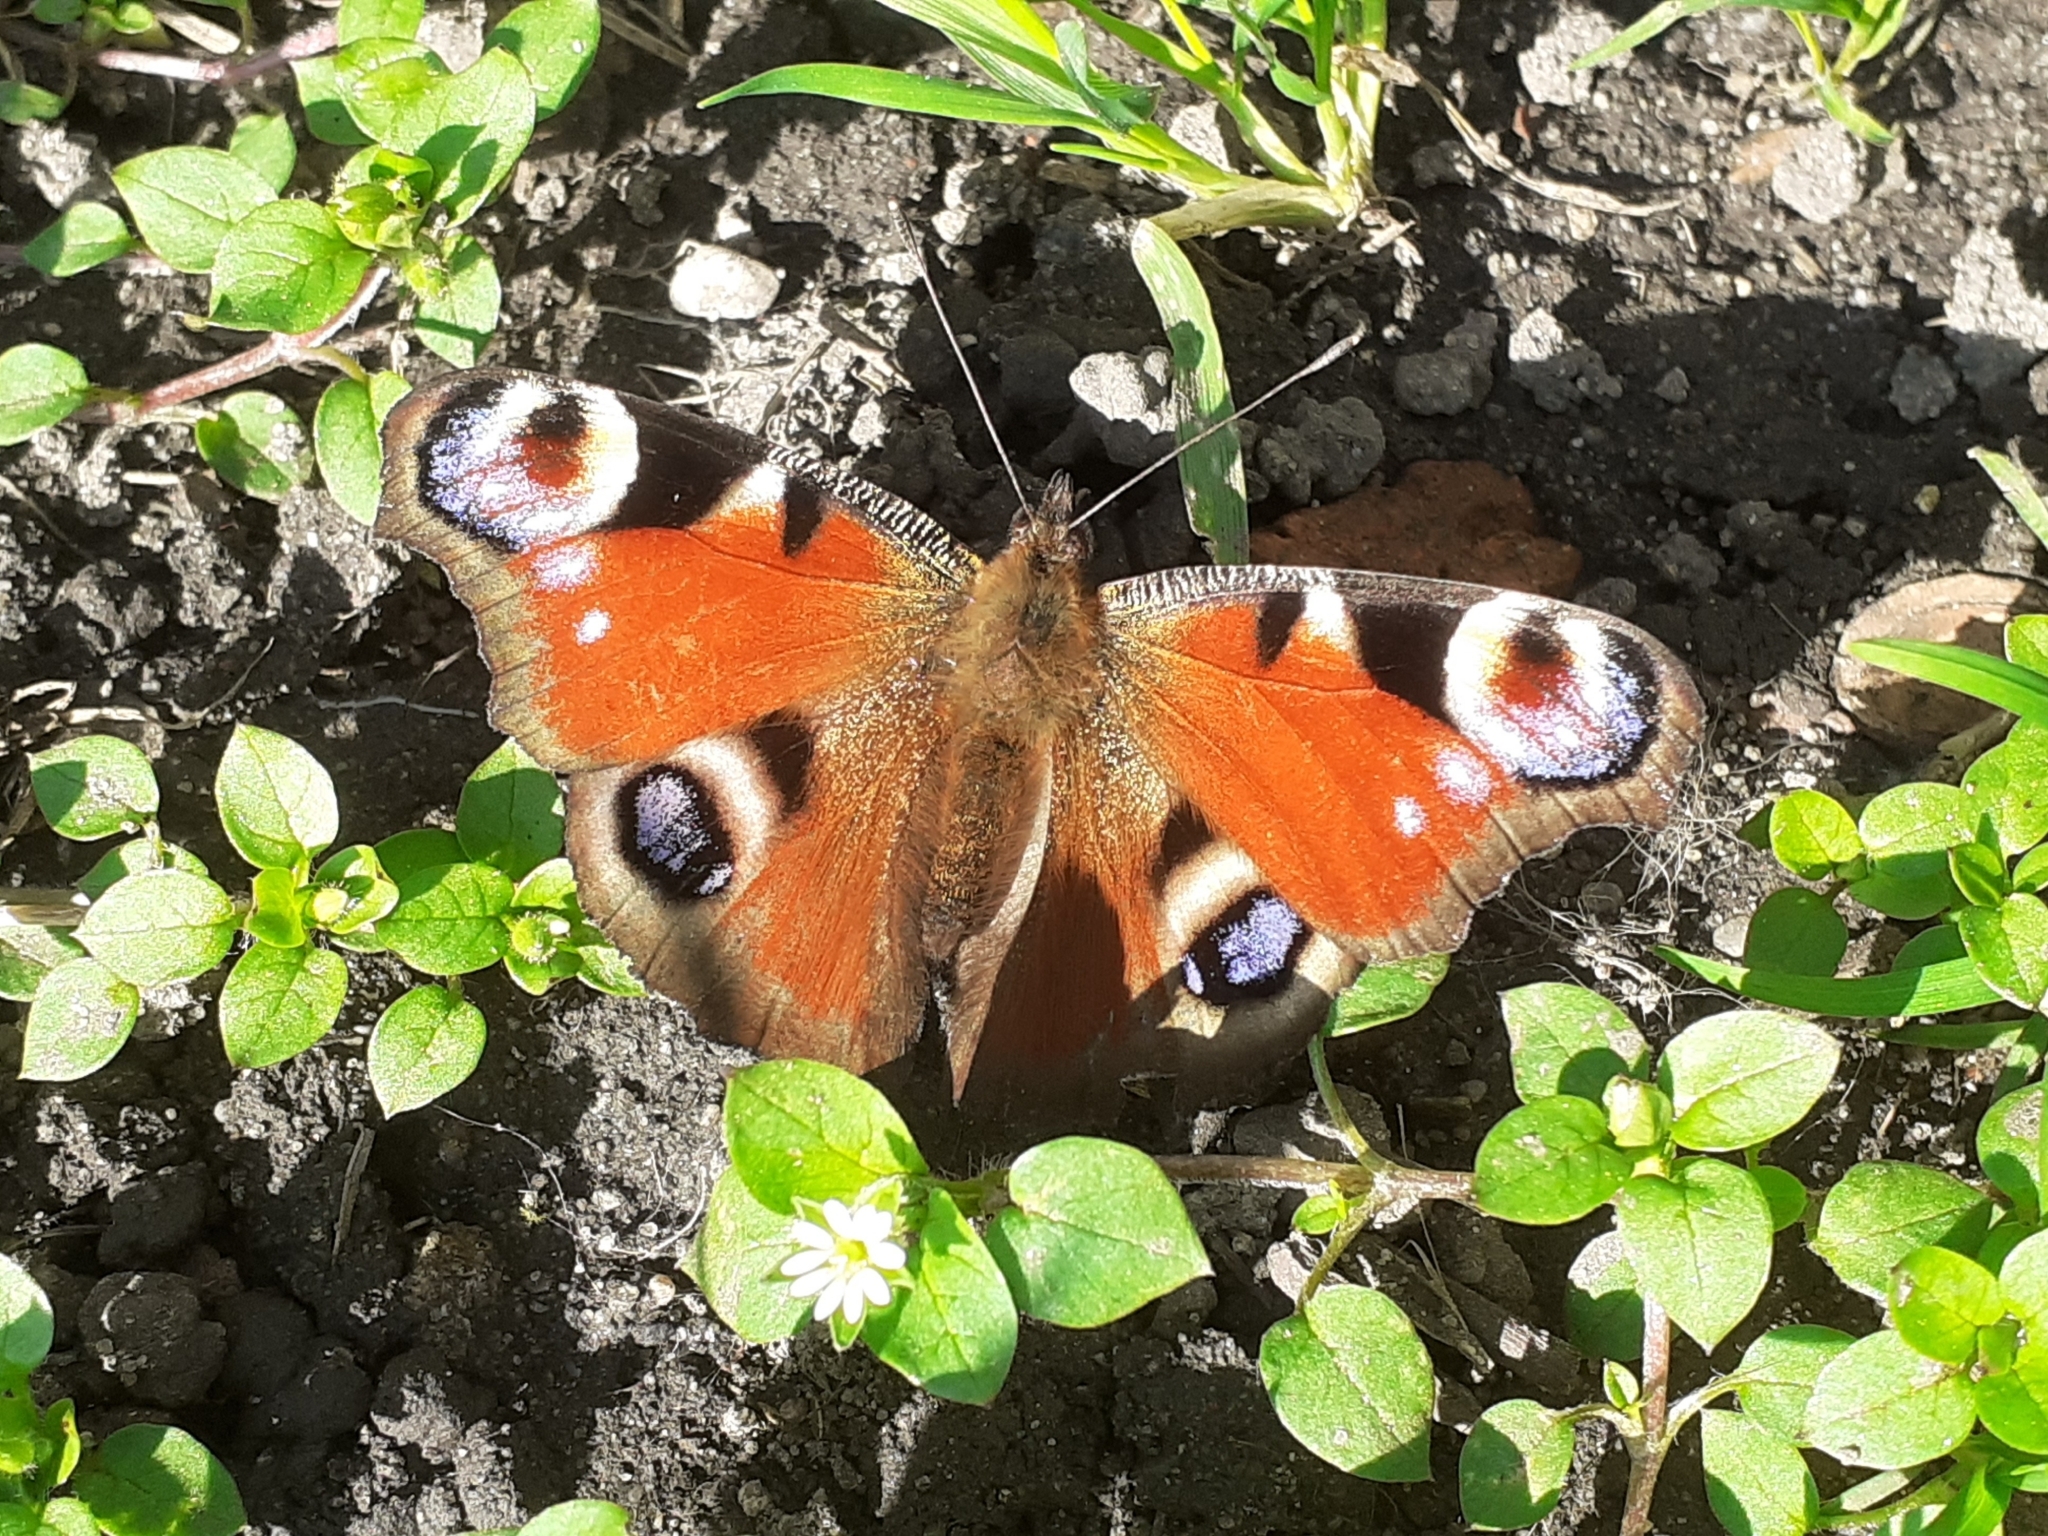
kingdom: Animalia
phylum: Arthropoda
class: Insecta
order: Lepidoptera
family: Nymphalidae
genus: Aglais
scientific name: Aglais io
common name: Peacock
